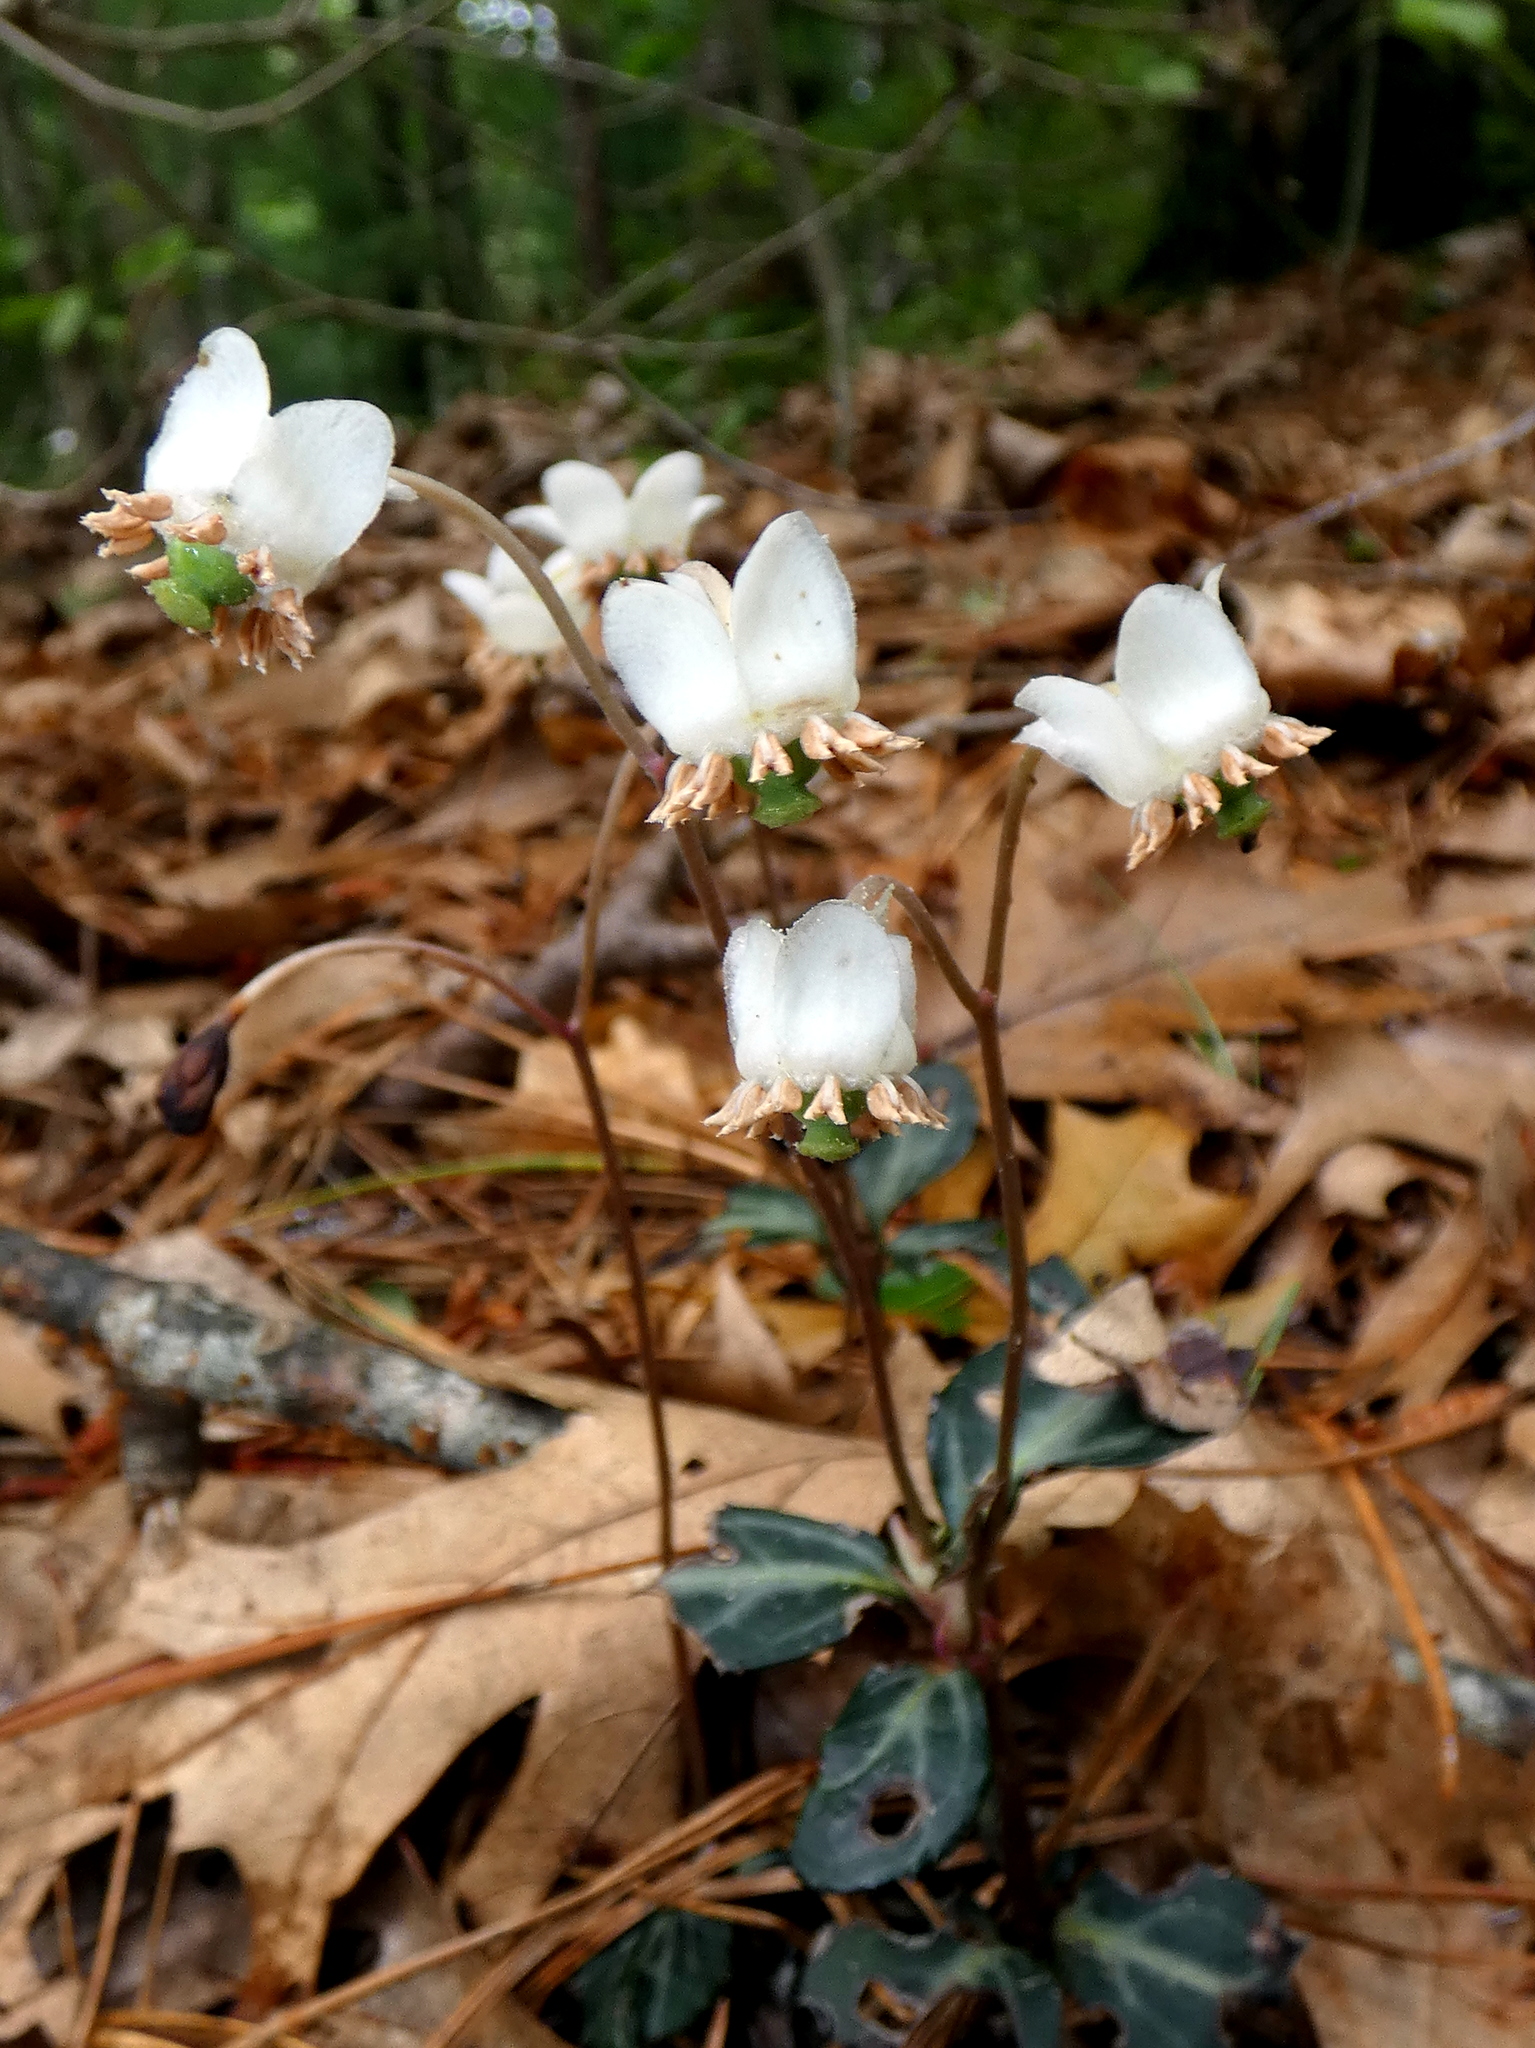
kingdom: Plantae
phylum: Tracheophyta
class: Magnoliopsida
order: Ericales
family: Ericaceae
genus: Chimaphila
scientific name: Chimaphila maculata
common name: Spotted pipsissewa
